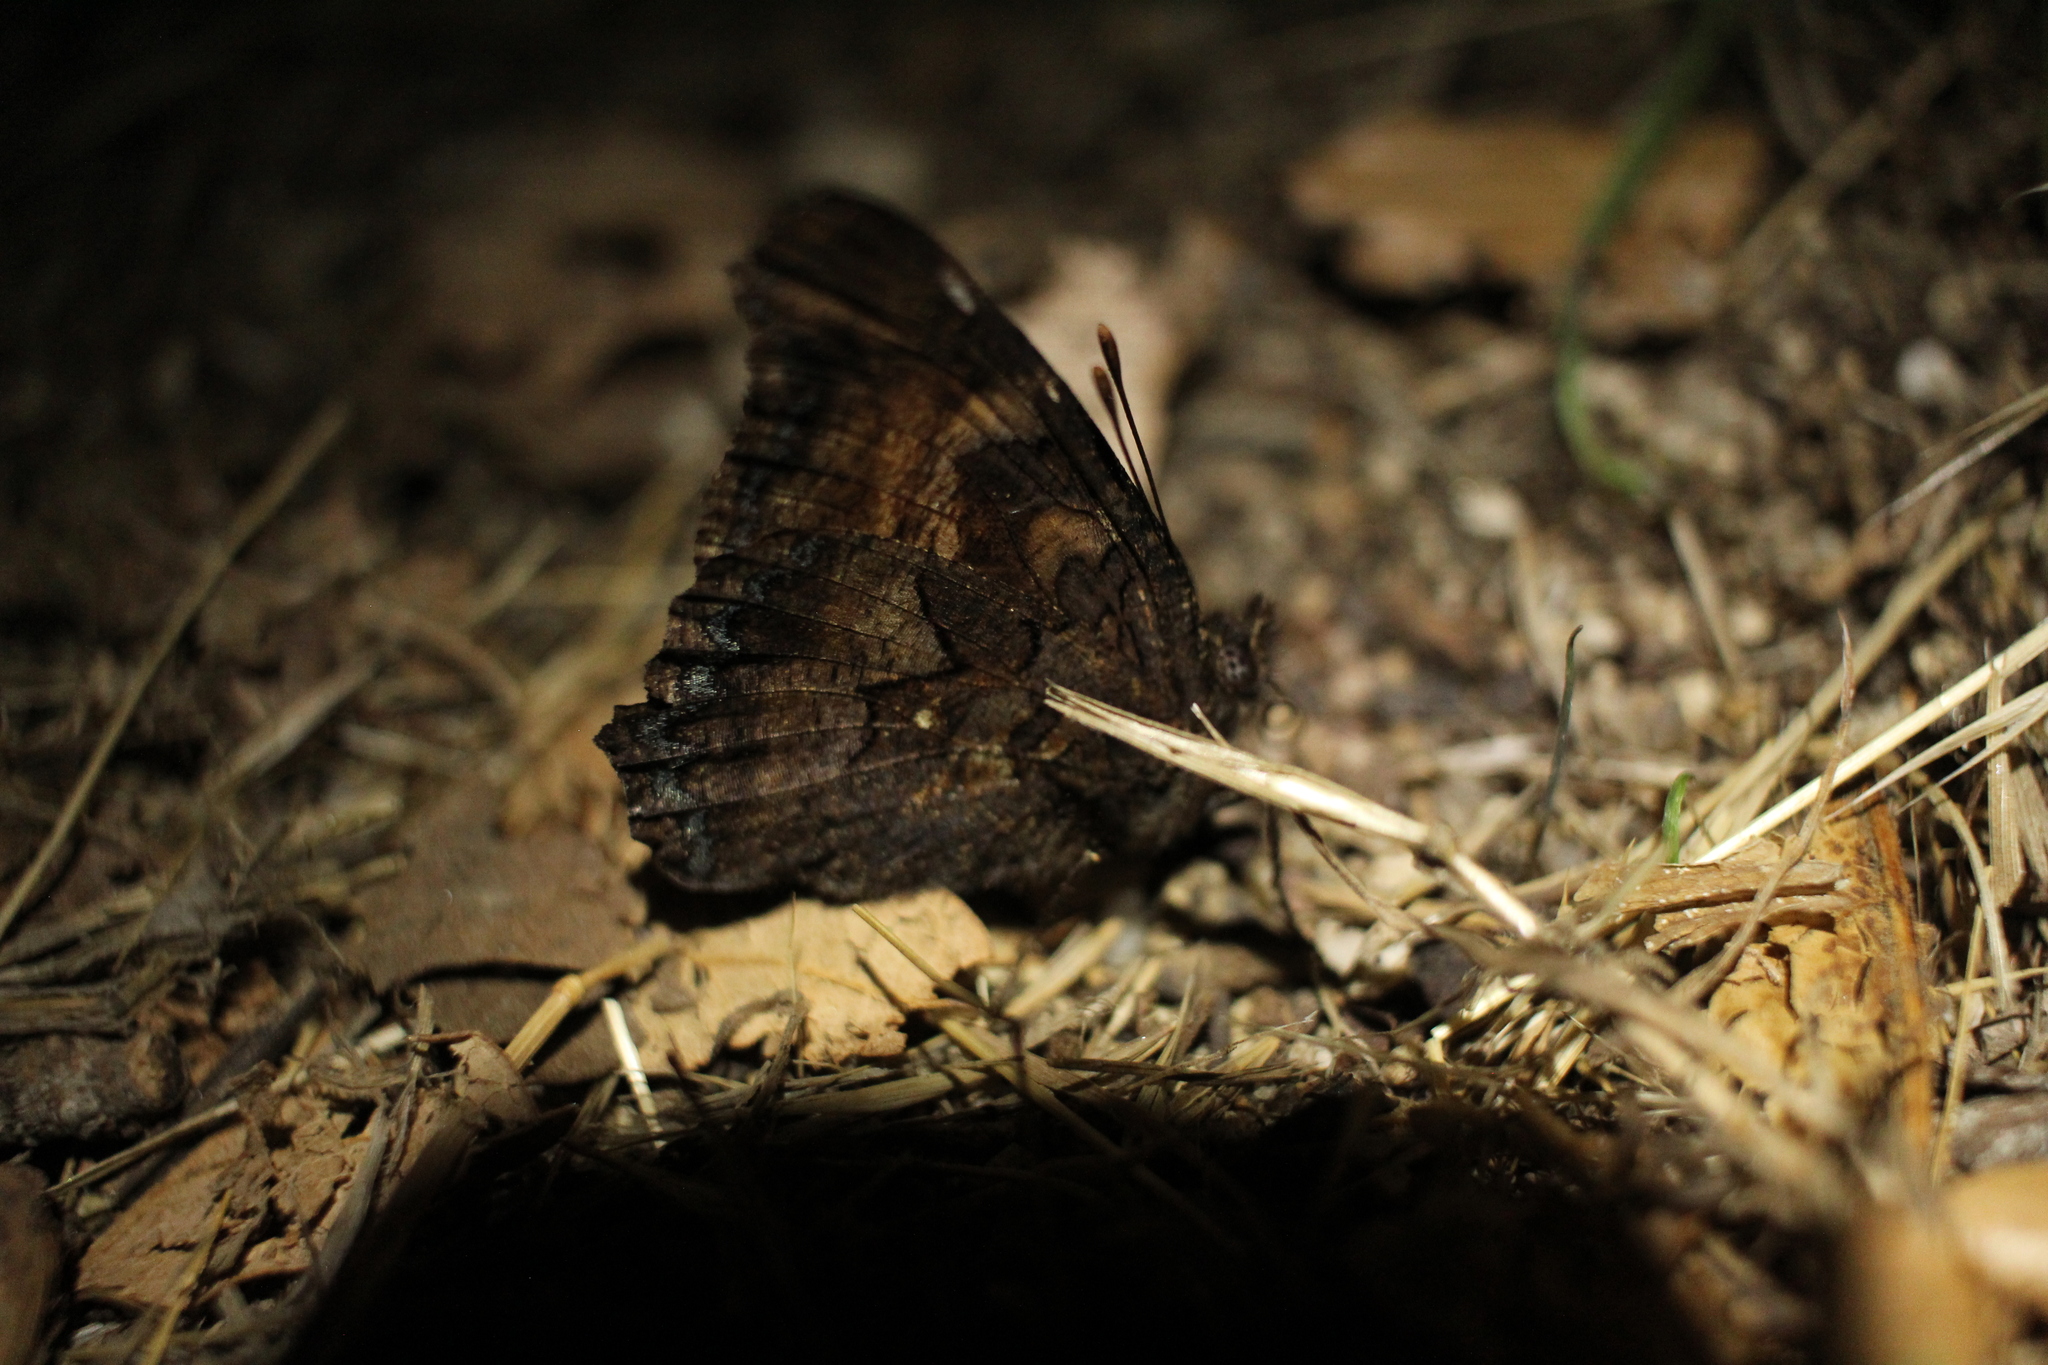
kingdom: Animalia
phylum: Arthropoda
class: Insecta
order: Lepidoptera
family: Nymphalidae
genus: Nymphalis
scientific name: Nymphalis californica
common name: California tortoiseshell
